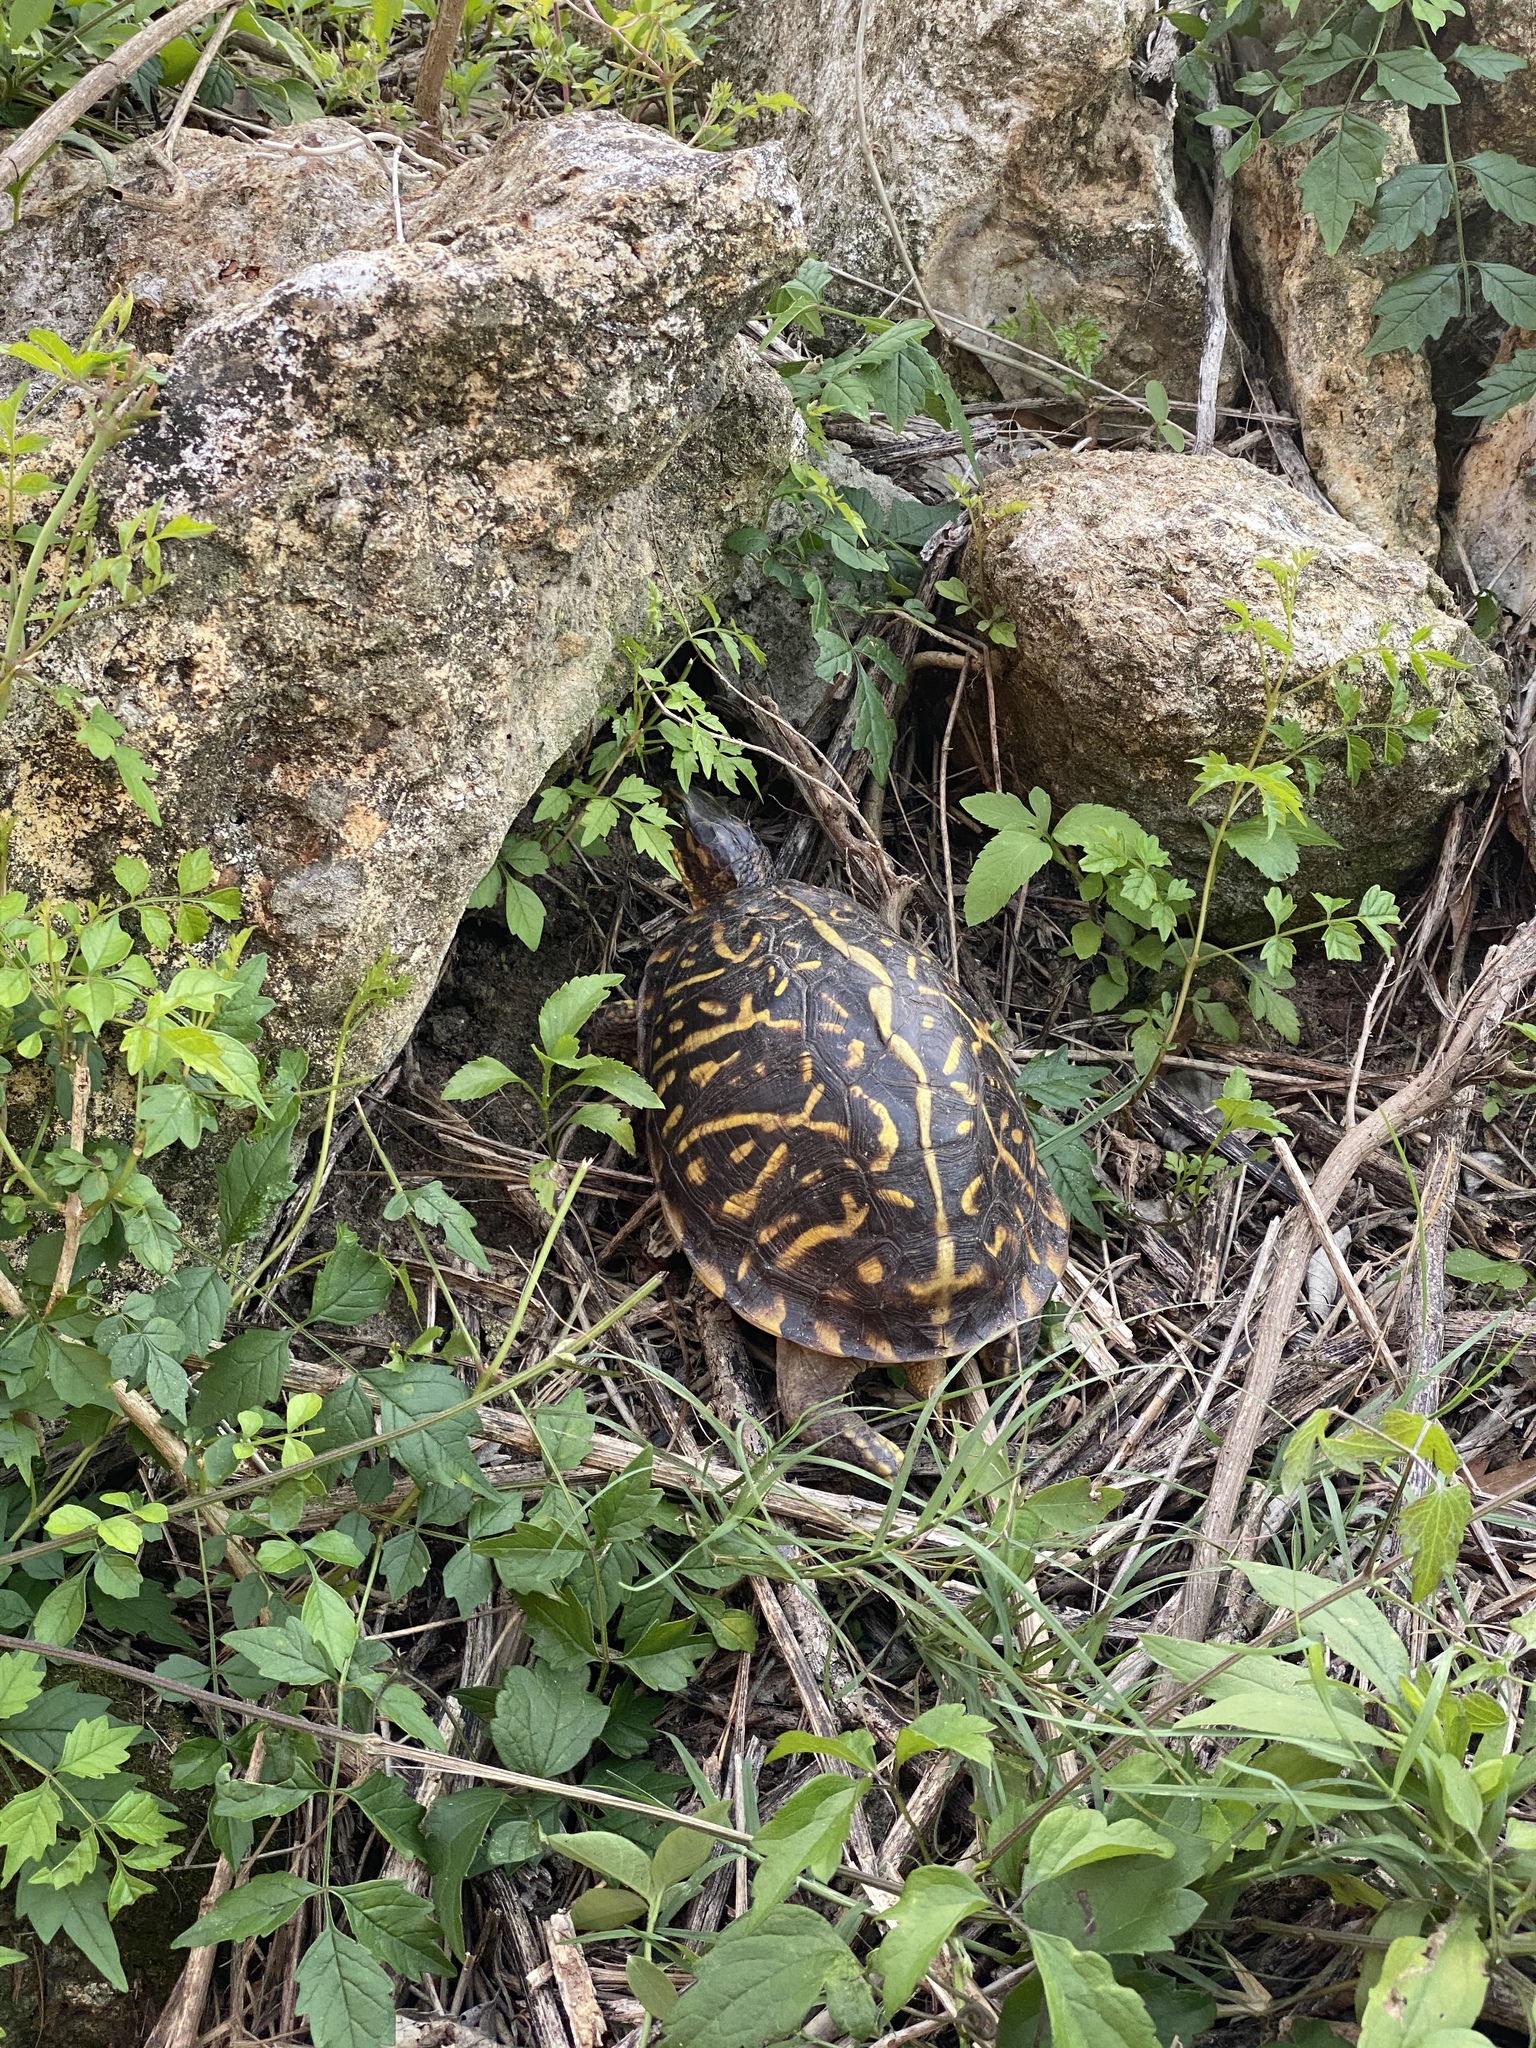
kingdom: Animalia
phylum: Chordata
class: Testudines
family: Emydidae
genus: Terrapene
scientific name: Terrapene carolina
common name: Common box turtle
